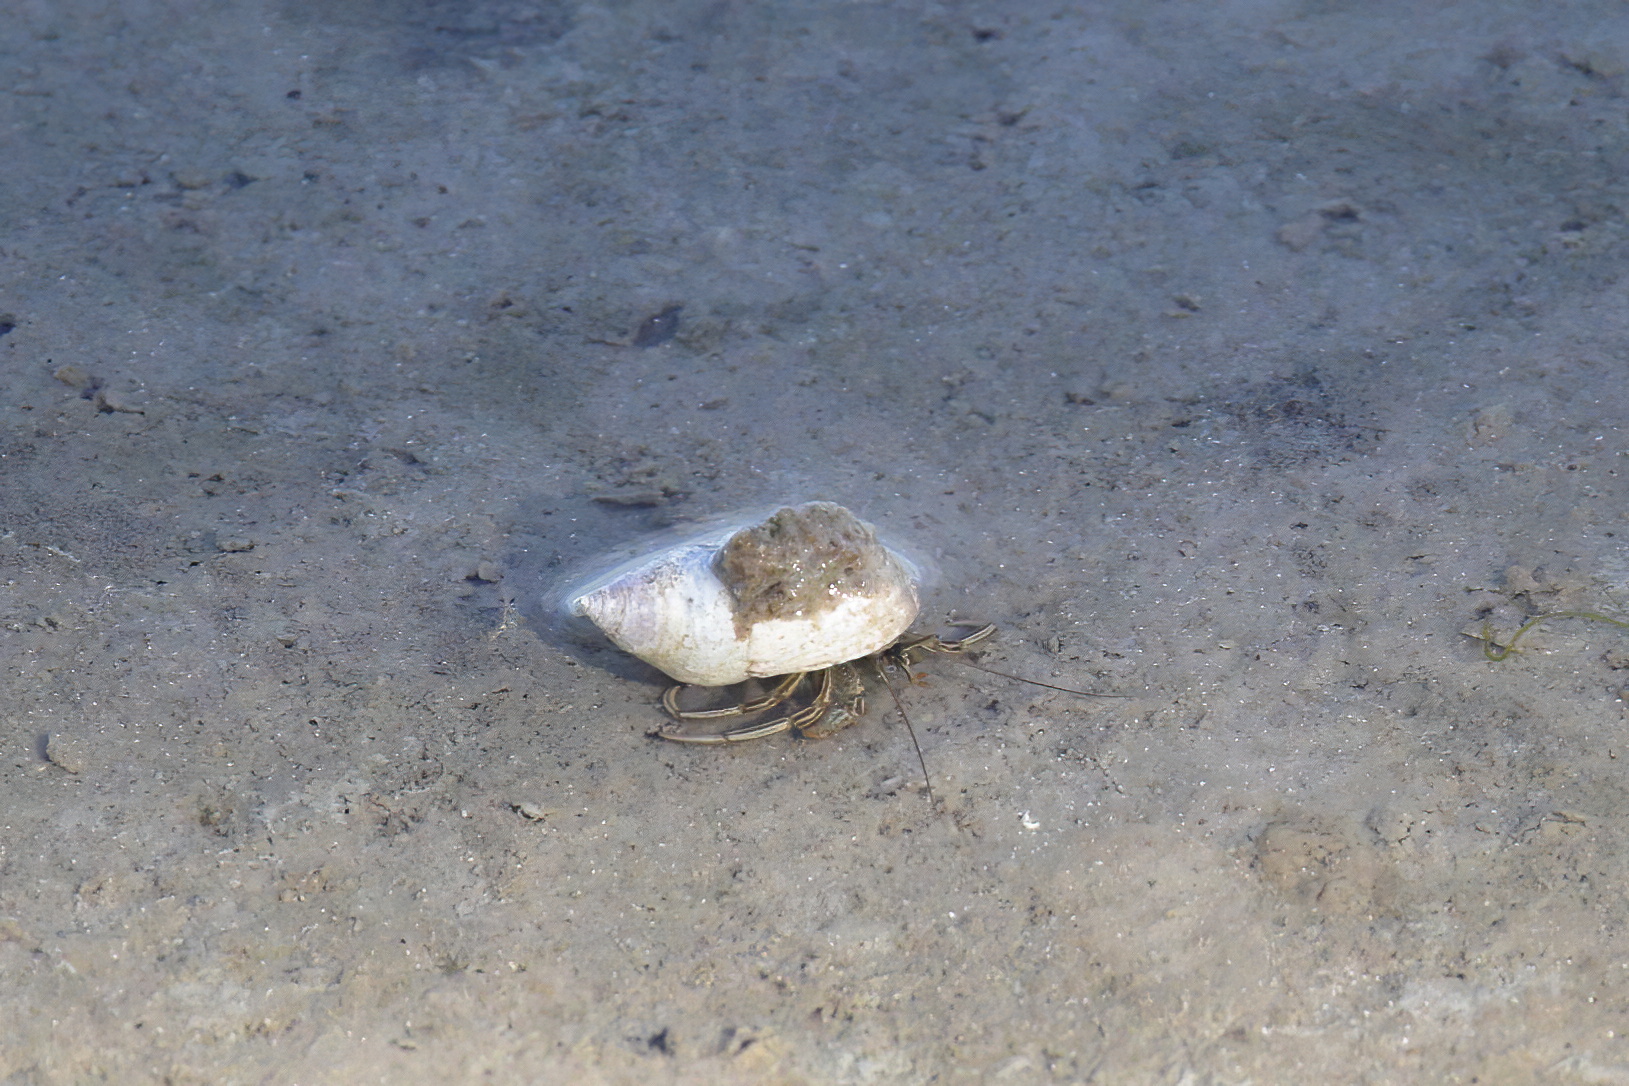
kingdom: Animalia
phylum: Arthropoda
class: Malacostraca
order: Decapoda
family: Diogenidae
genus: Clibanarius
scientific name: Clibanarius vittatus
